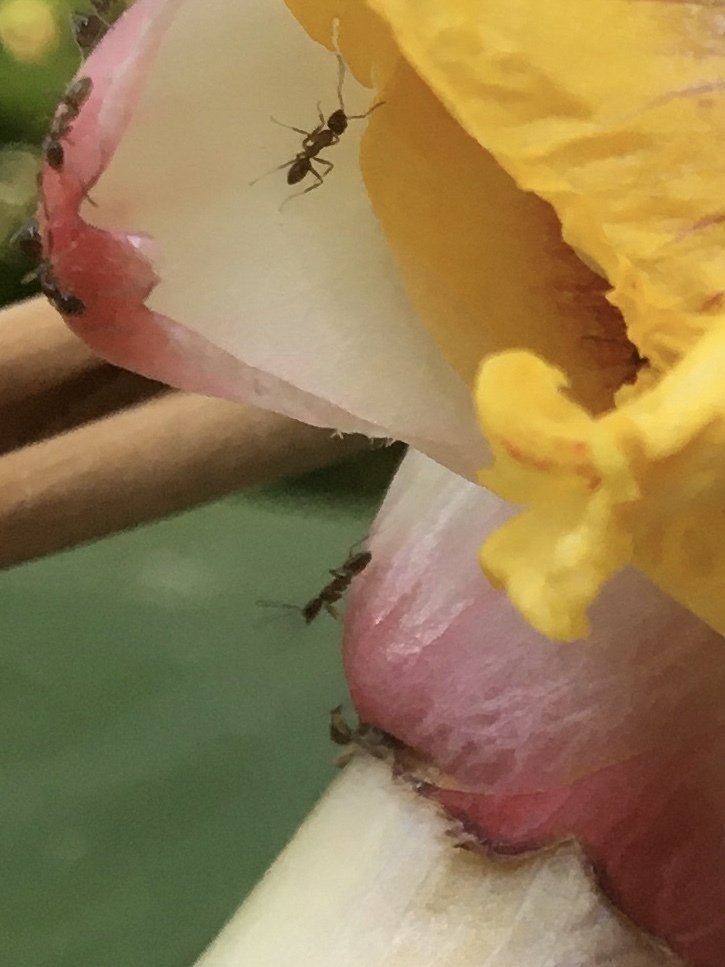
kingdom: Animalia
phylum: Arthropoda
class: Insecta
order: Hymenoptera
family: Formicidae
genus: Linepithema
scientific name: Linepithema humile
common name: Argentine ant
